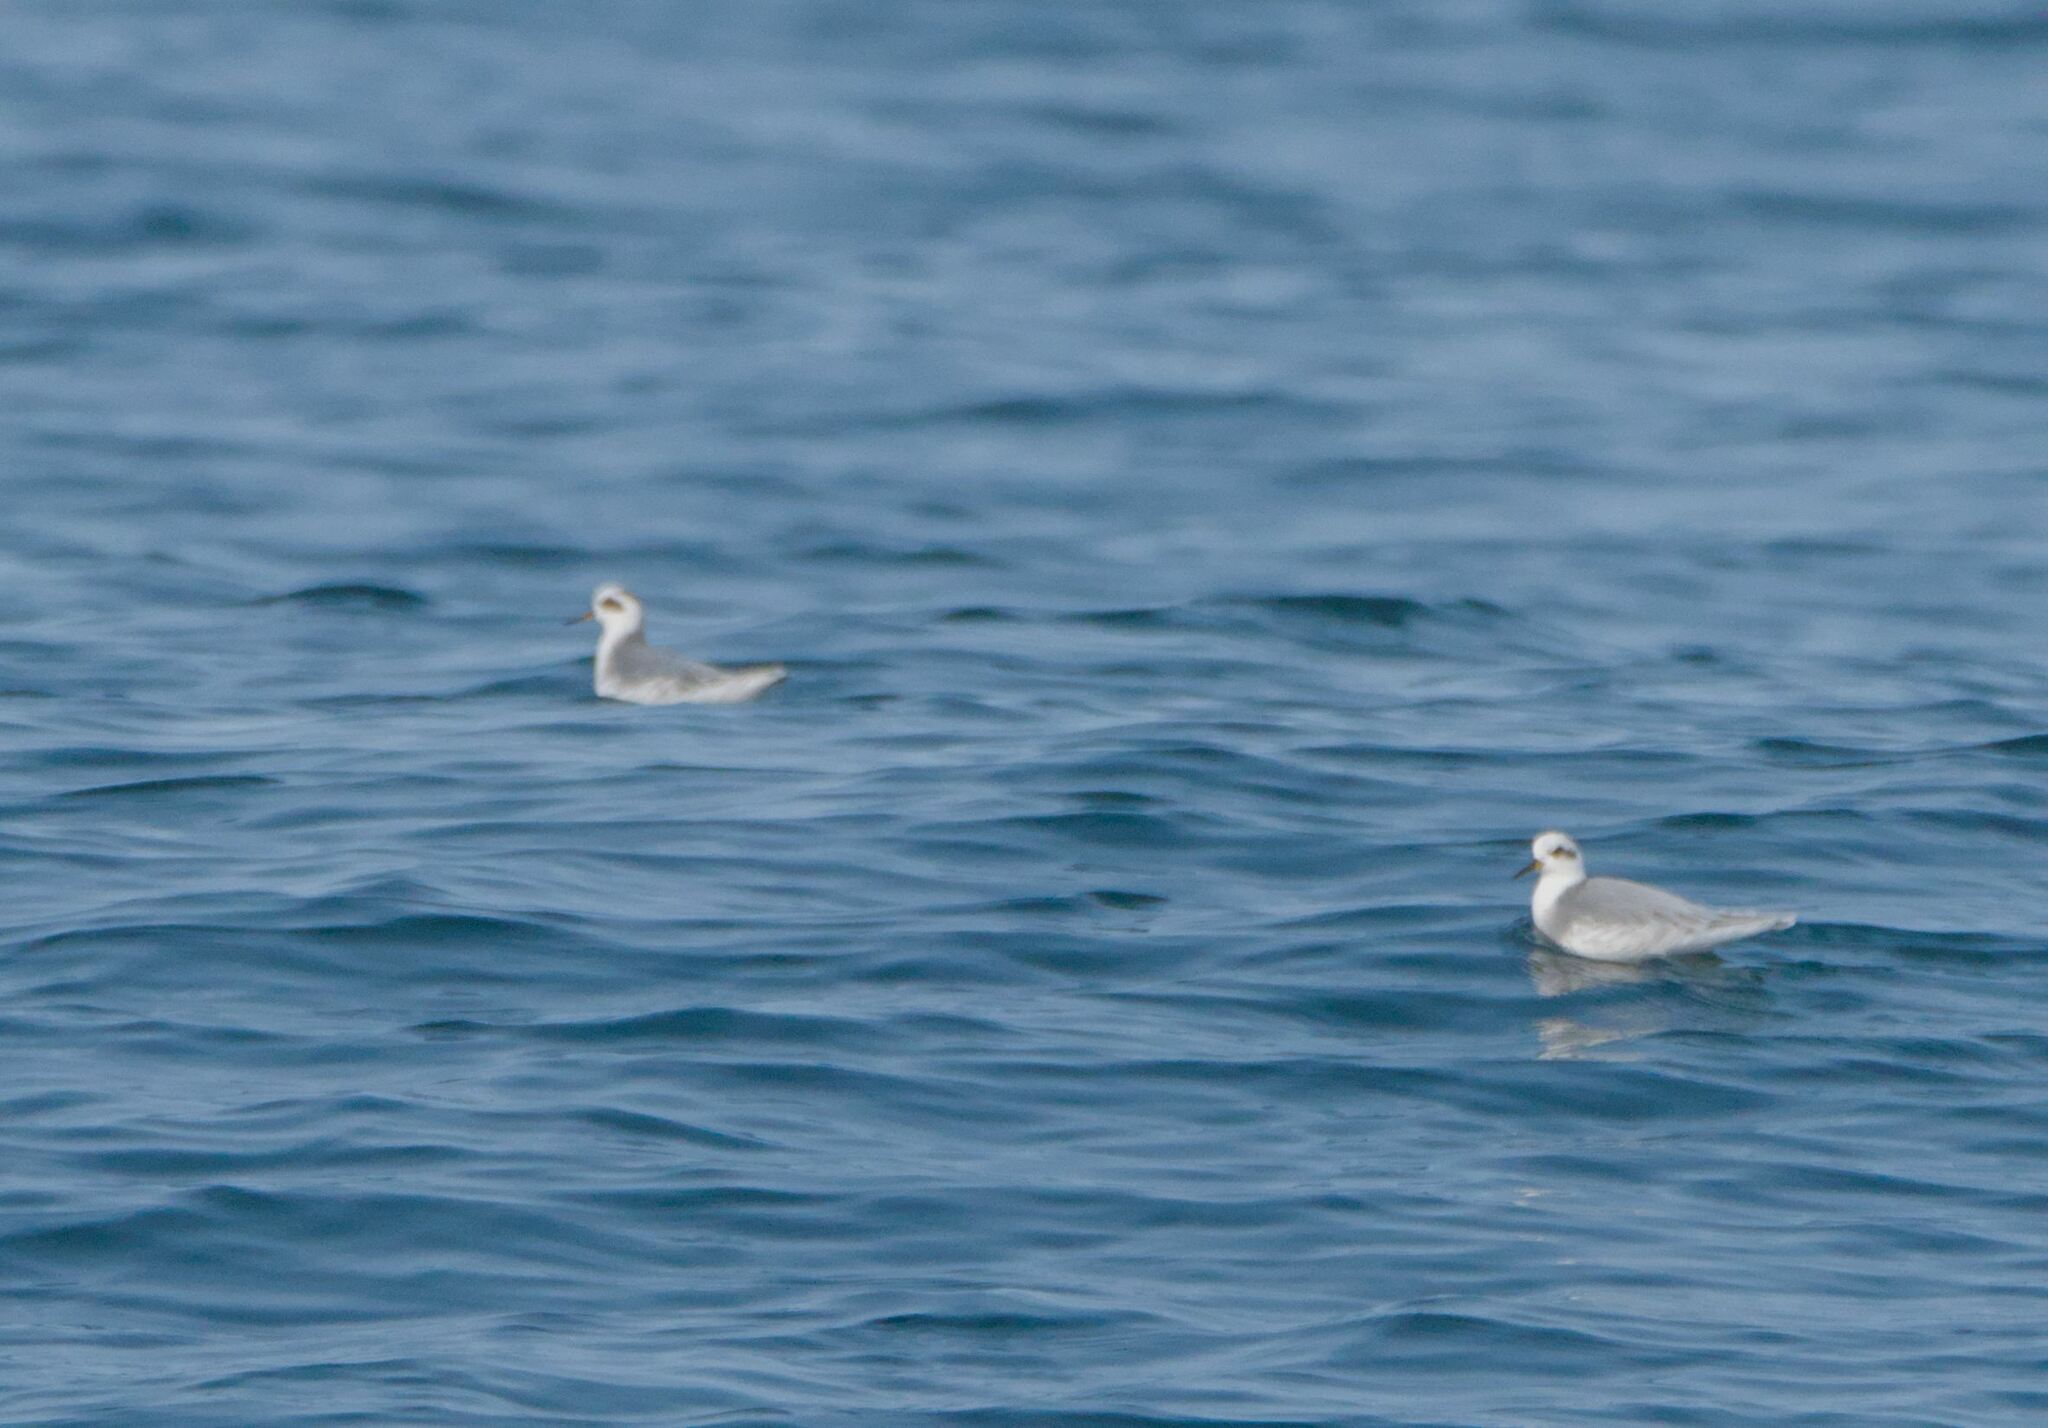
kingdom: Animalia
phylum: Chordata
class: Aves
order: Charadriiformes
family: Scolopacidae
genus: Phalaropus
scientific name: Phalaropus fulicarius
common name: Red phalarope
